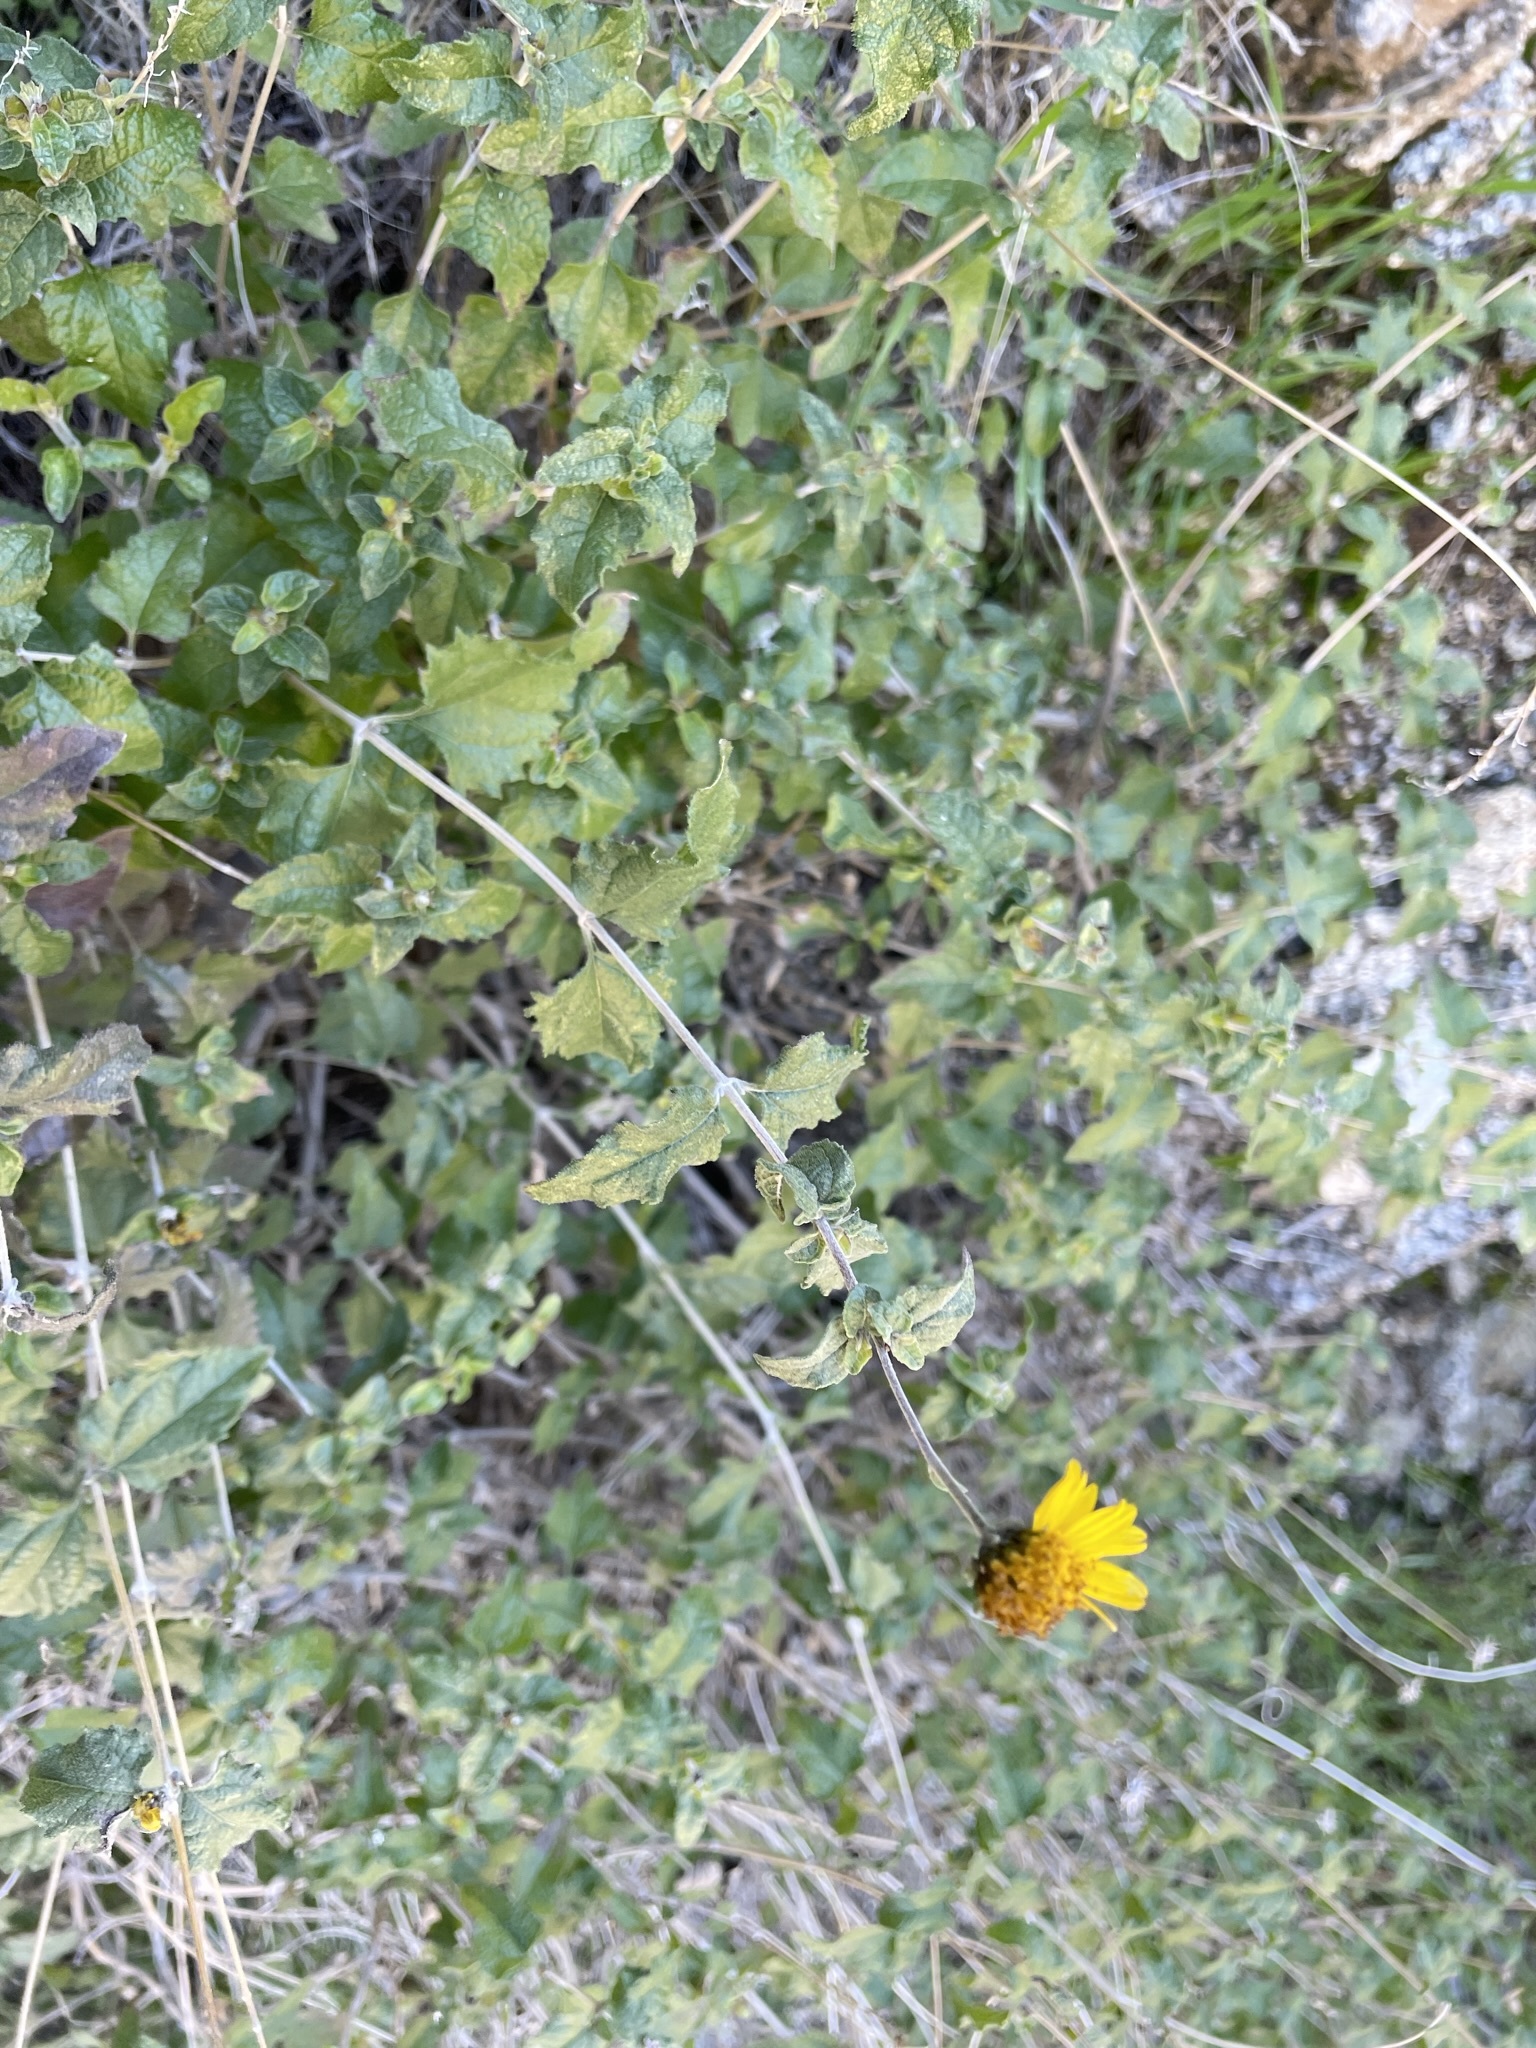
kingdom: Plantae
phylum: Tracheophyta
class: Magnoliopsida
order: Asterales
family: Asteraceae
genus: Bahiopsis
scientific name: Bahiopsis parishii
